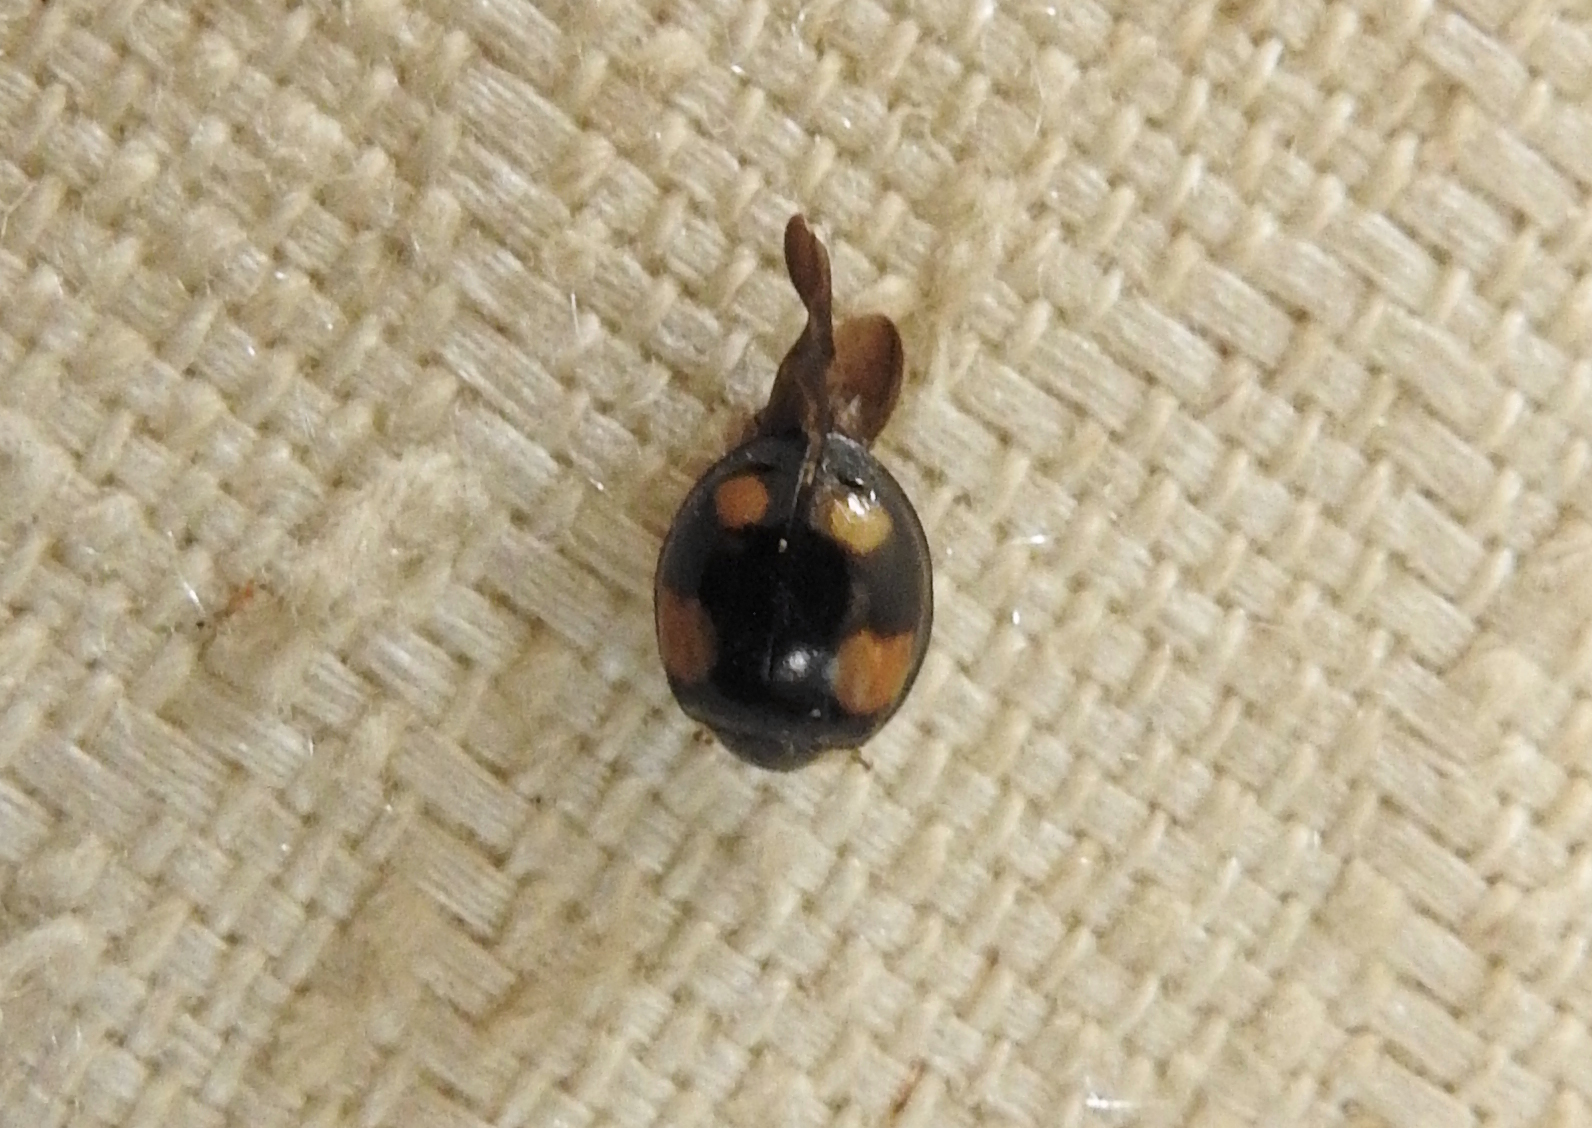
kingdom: Animalia
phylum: Arthropoda
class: Insecta
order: Coleoptera
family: Coccinellidae
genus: Harmonia
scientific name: Harmonia axyridis
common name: Harlequin ladybird
